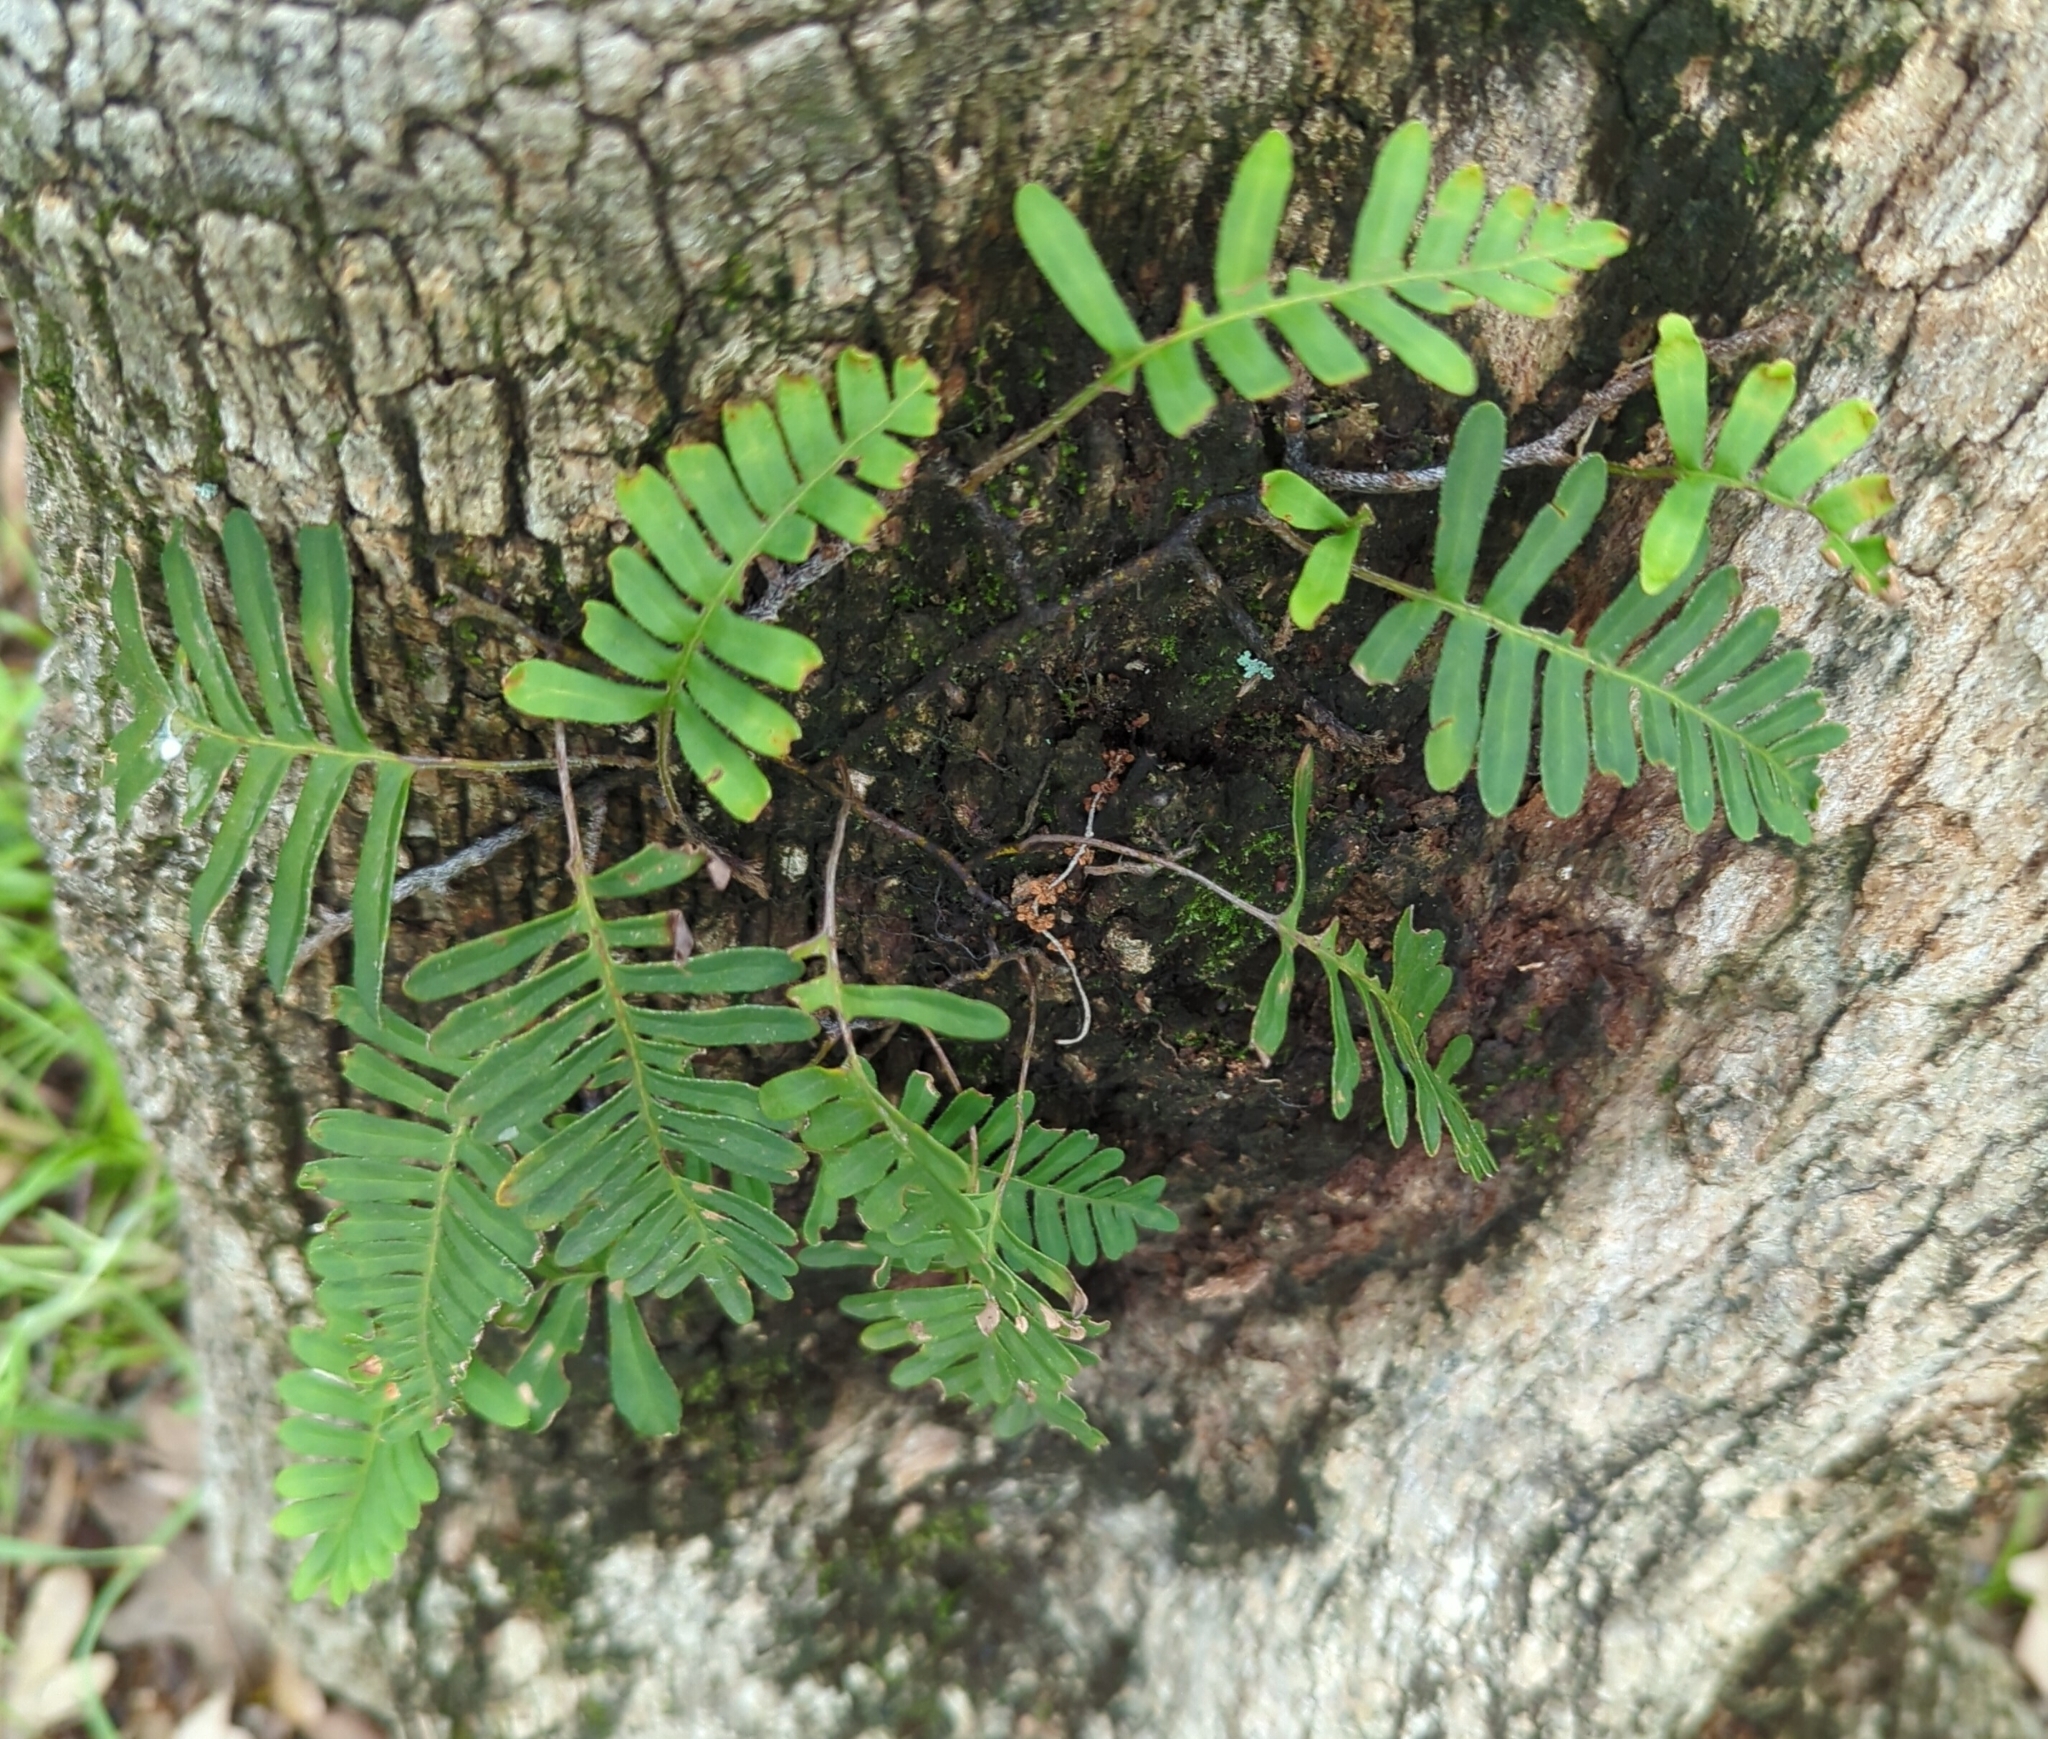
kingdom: Plantae
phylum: Tracheophyta
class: Polypodiopsida
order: Polypodiales
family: Polypodiaceae
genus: Pleopeltis
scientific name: Pleopeltis michauxiana
